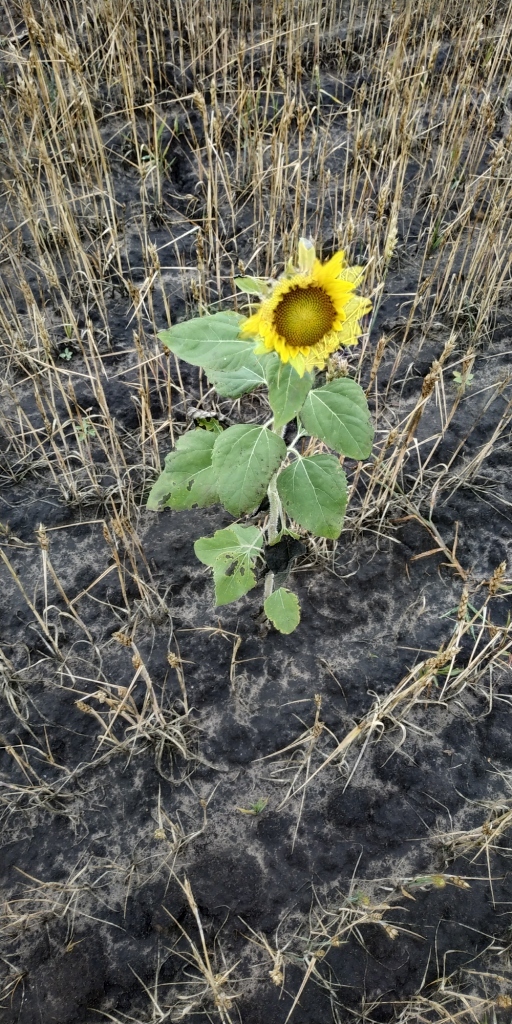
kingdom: Plantae
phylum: Tracheophyta
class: Magnoliopsida
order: Asterales
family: Asteraceae
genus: Helianthus
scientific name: Helianthus annuus
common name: Sunflower
